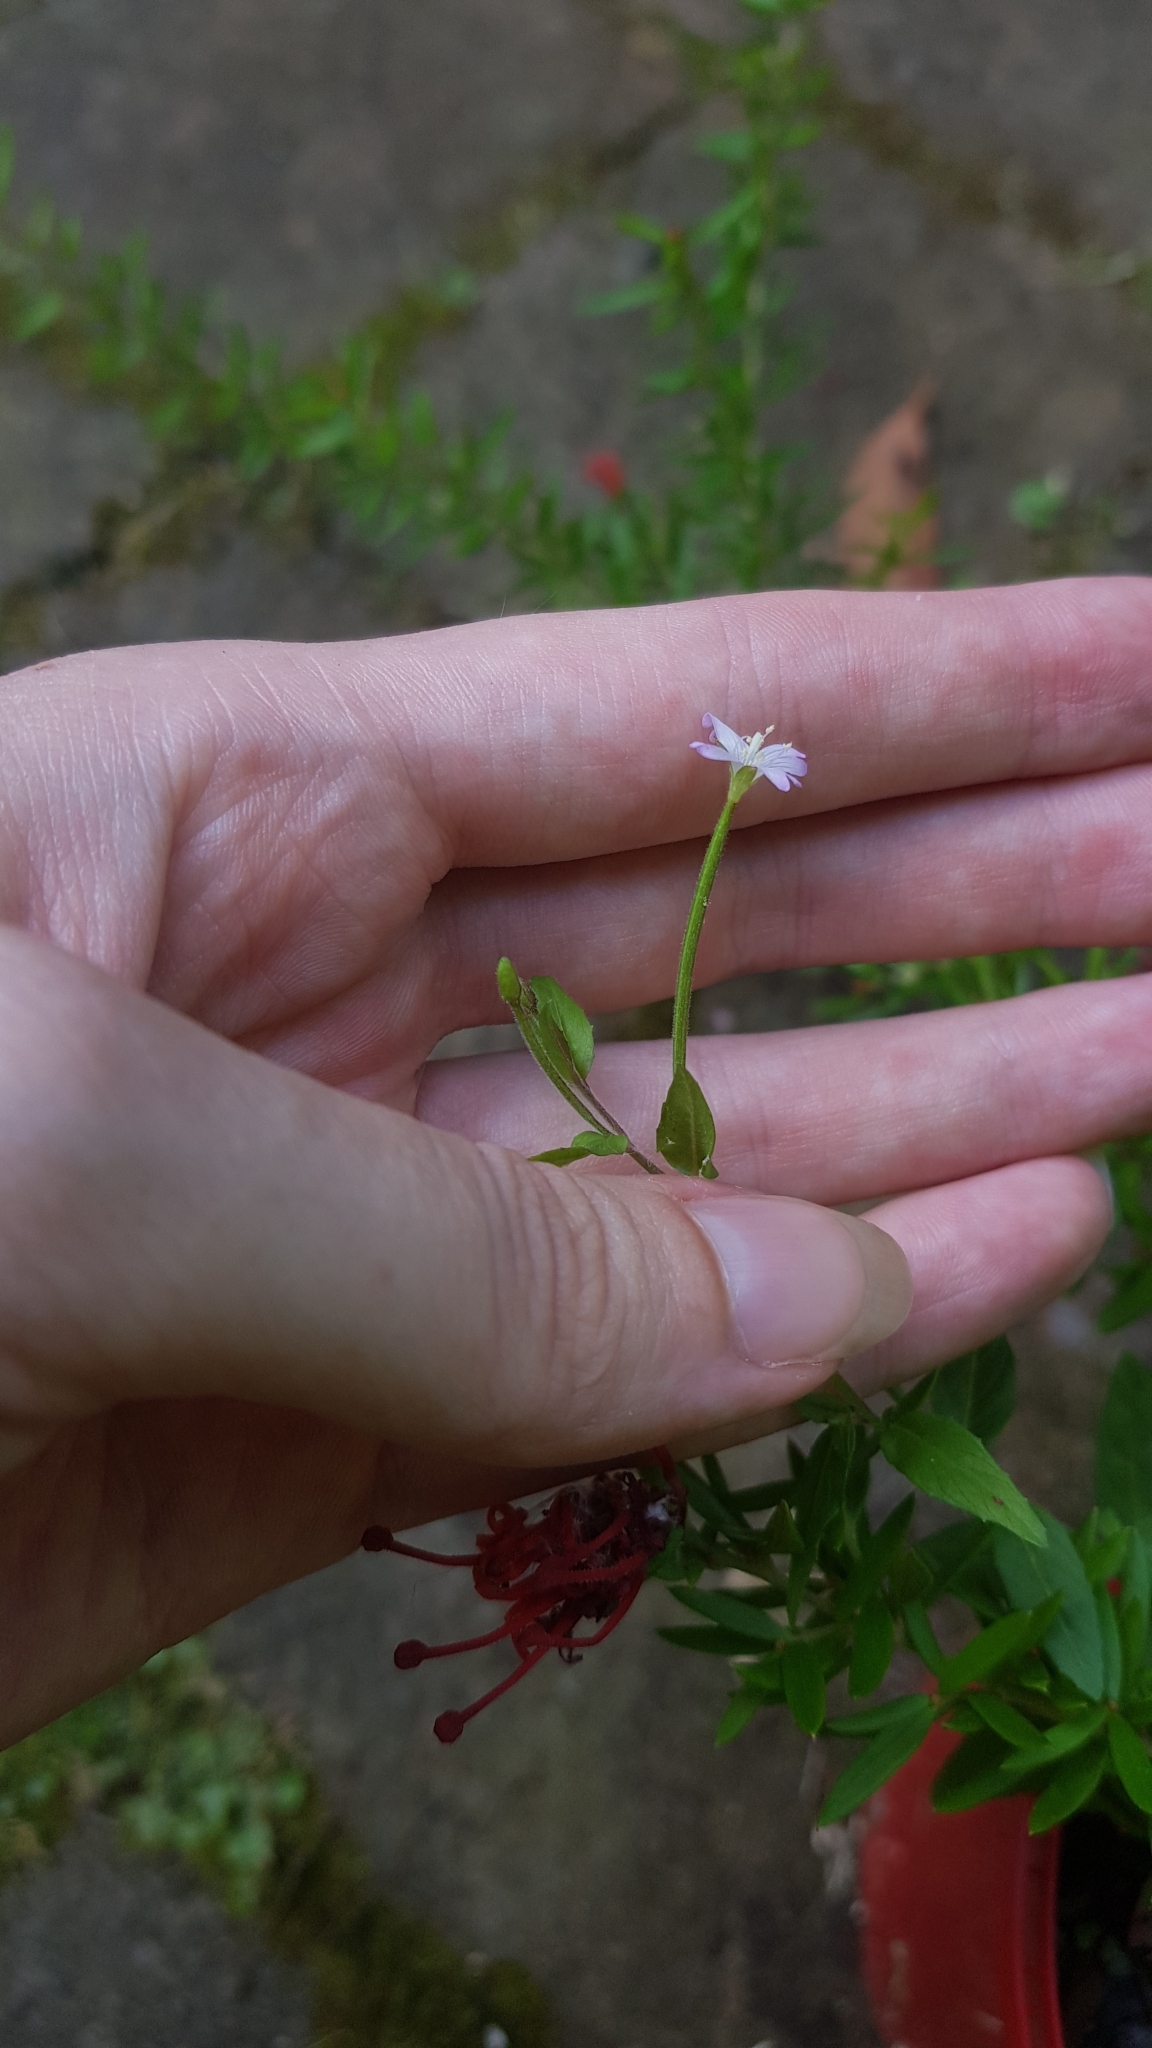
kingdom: Plantae
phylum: Tracheophyta
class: Magnoliopsida
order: Myrtales
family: Onagraceae
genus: Epilobium
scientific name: Epilobium ciliatum
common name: American willowherb
